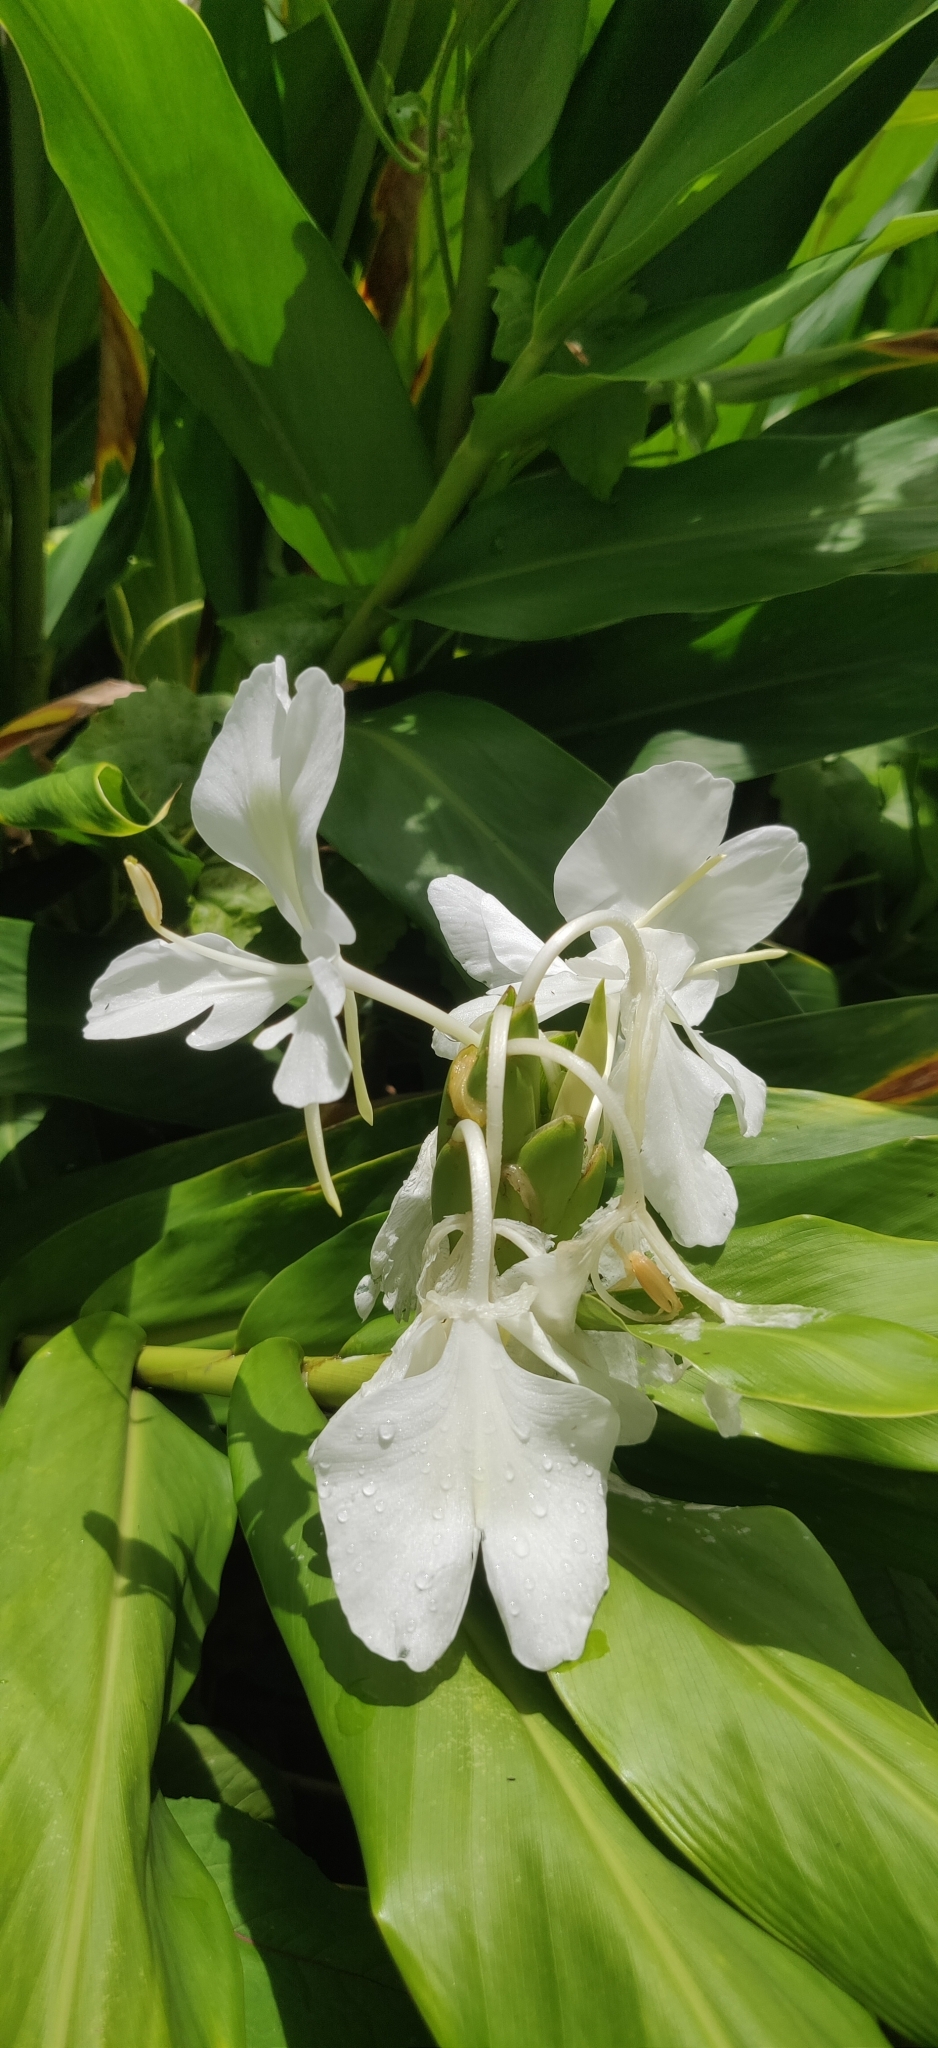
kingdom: Plantae
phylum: Tracheophyta
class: Liliopsida
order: Zingiberales
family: Zingiberaceae
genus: Hedychium
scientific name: Hedychium coronarium
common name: White garland-lily
